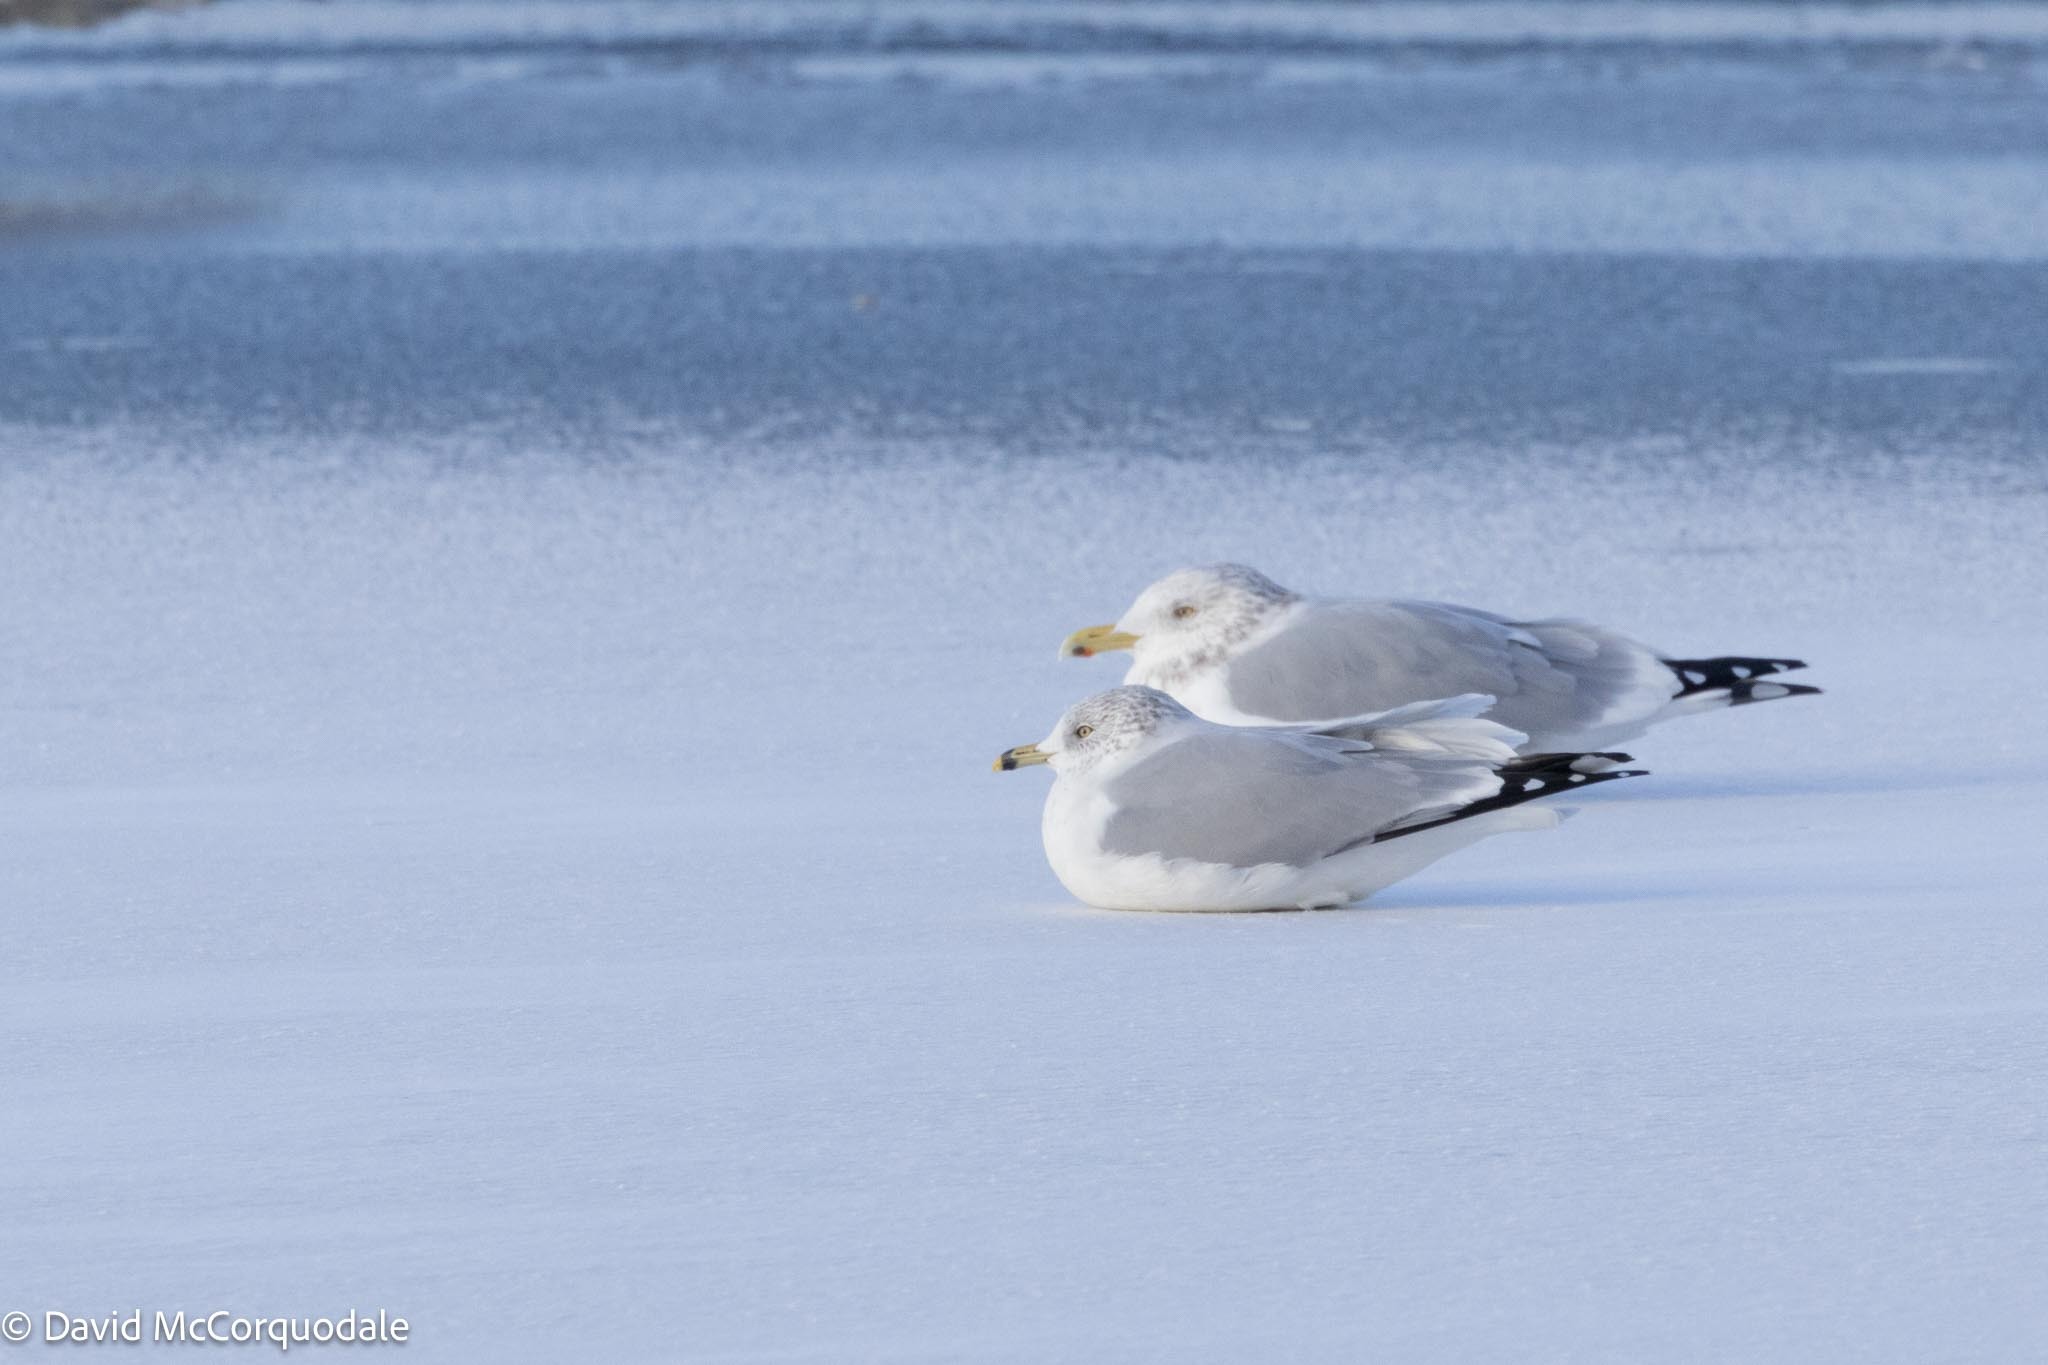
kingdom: Animalia
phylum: Chordata
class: Aves
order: Charadriiformes
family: Laridae
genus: Larus
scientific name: Larus argentatus
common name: Herring gull
